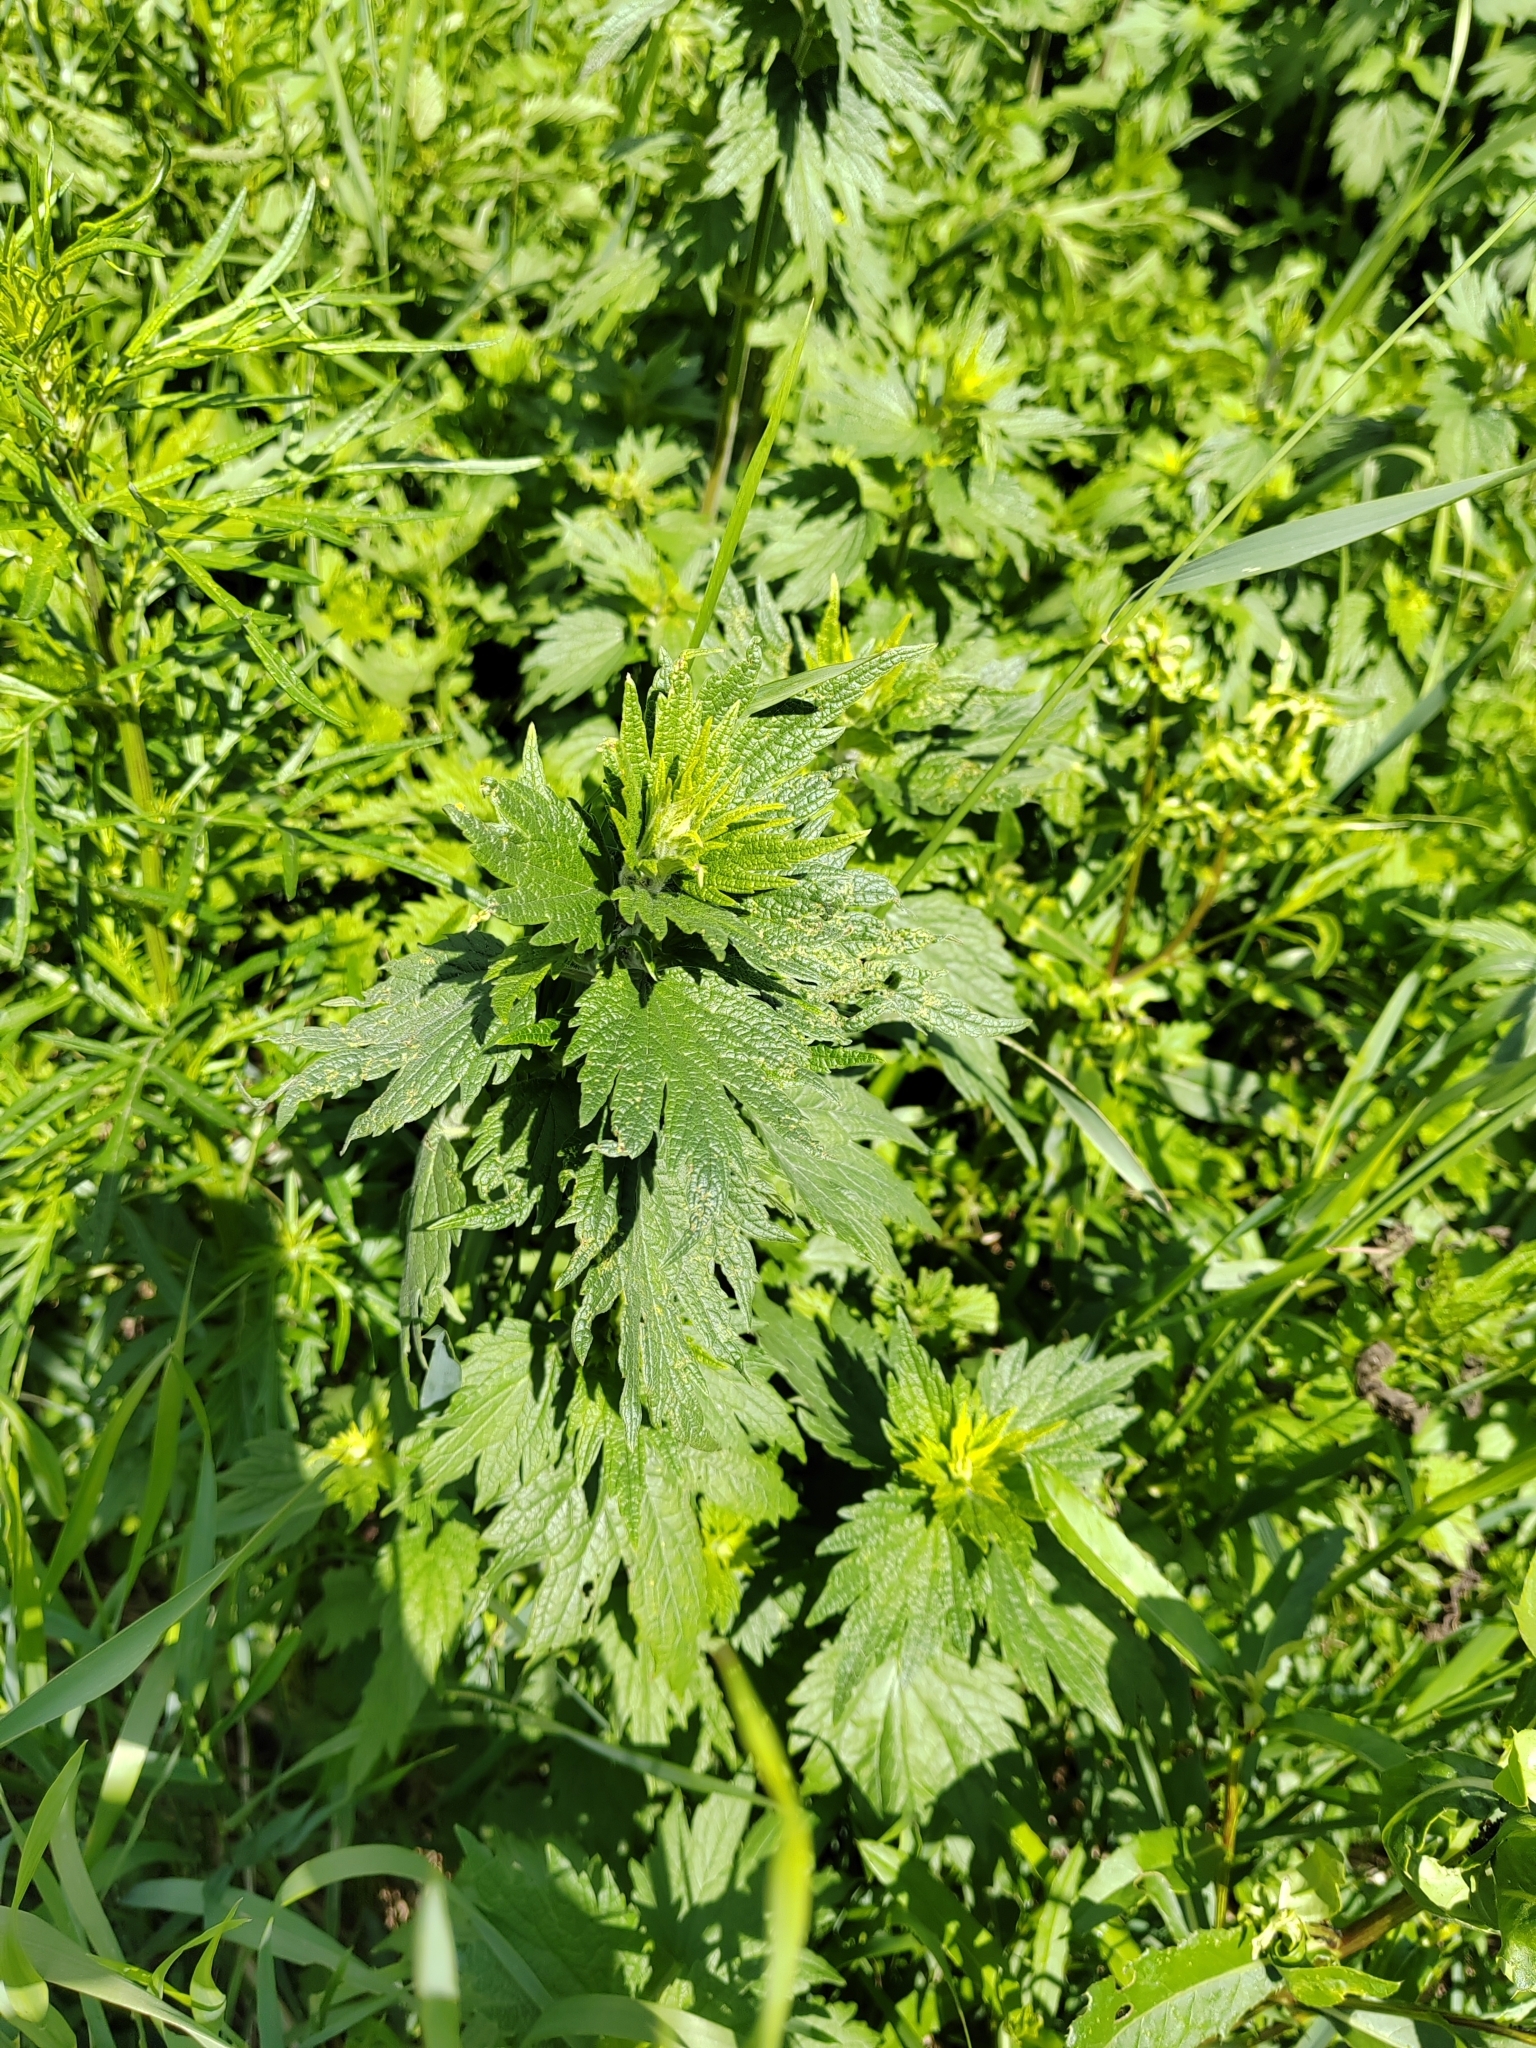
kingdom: Plantae
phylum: Tracheophyta
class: Magnoliopsida
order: Lamiales
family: Lamiaceae
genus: Leonurus
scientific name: Leonurus quinquelobatus
